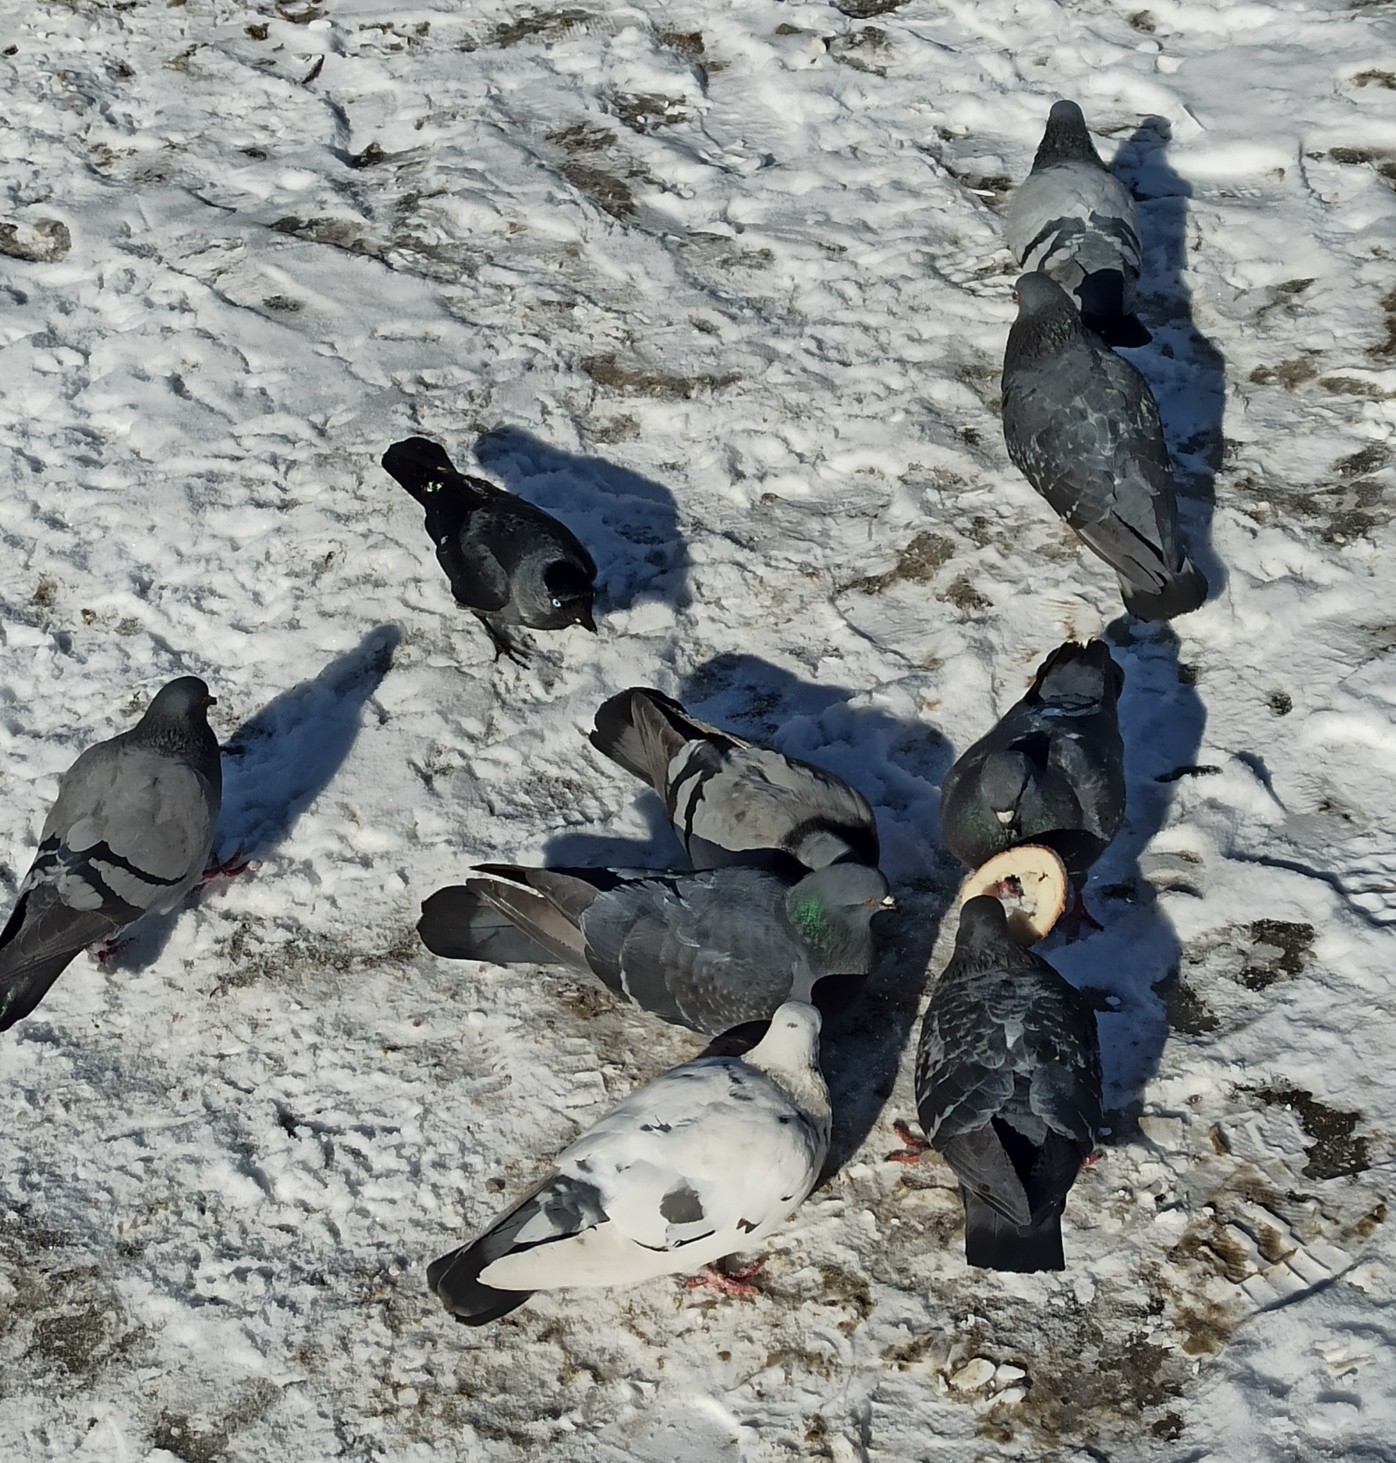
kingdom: Animalia
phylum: Chordata
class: Aves
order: Columbiformes
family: Columbidae
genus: Columba
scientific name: Columba livia
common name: Rock pigeon
